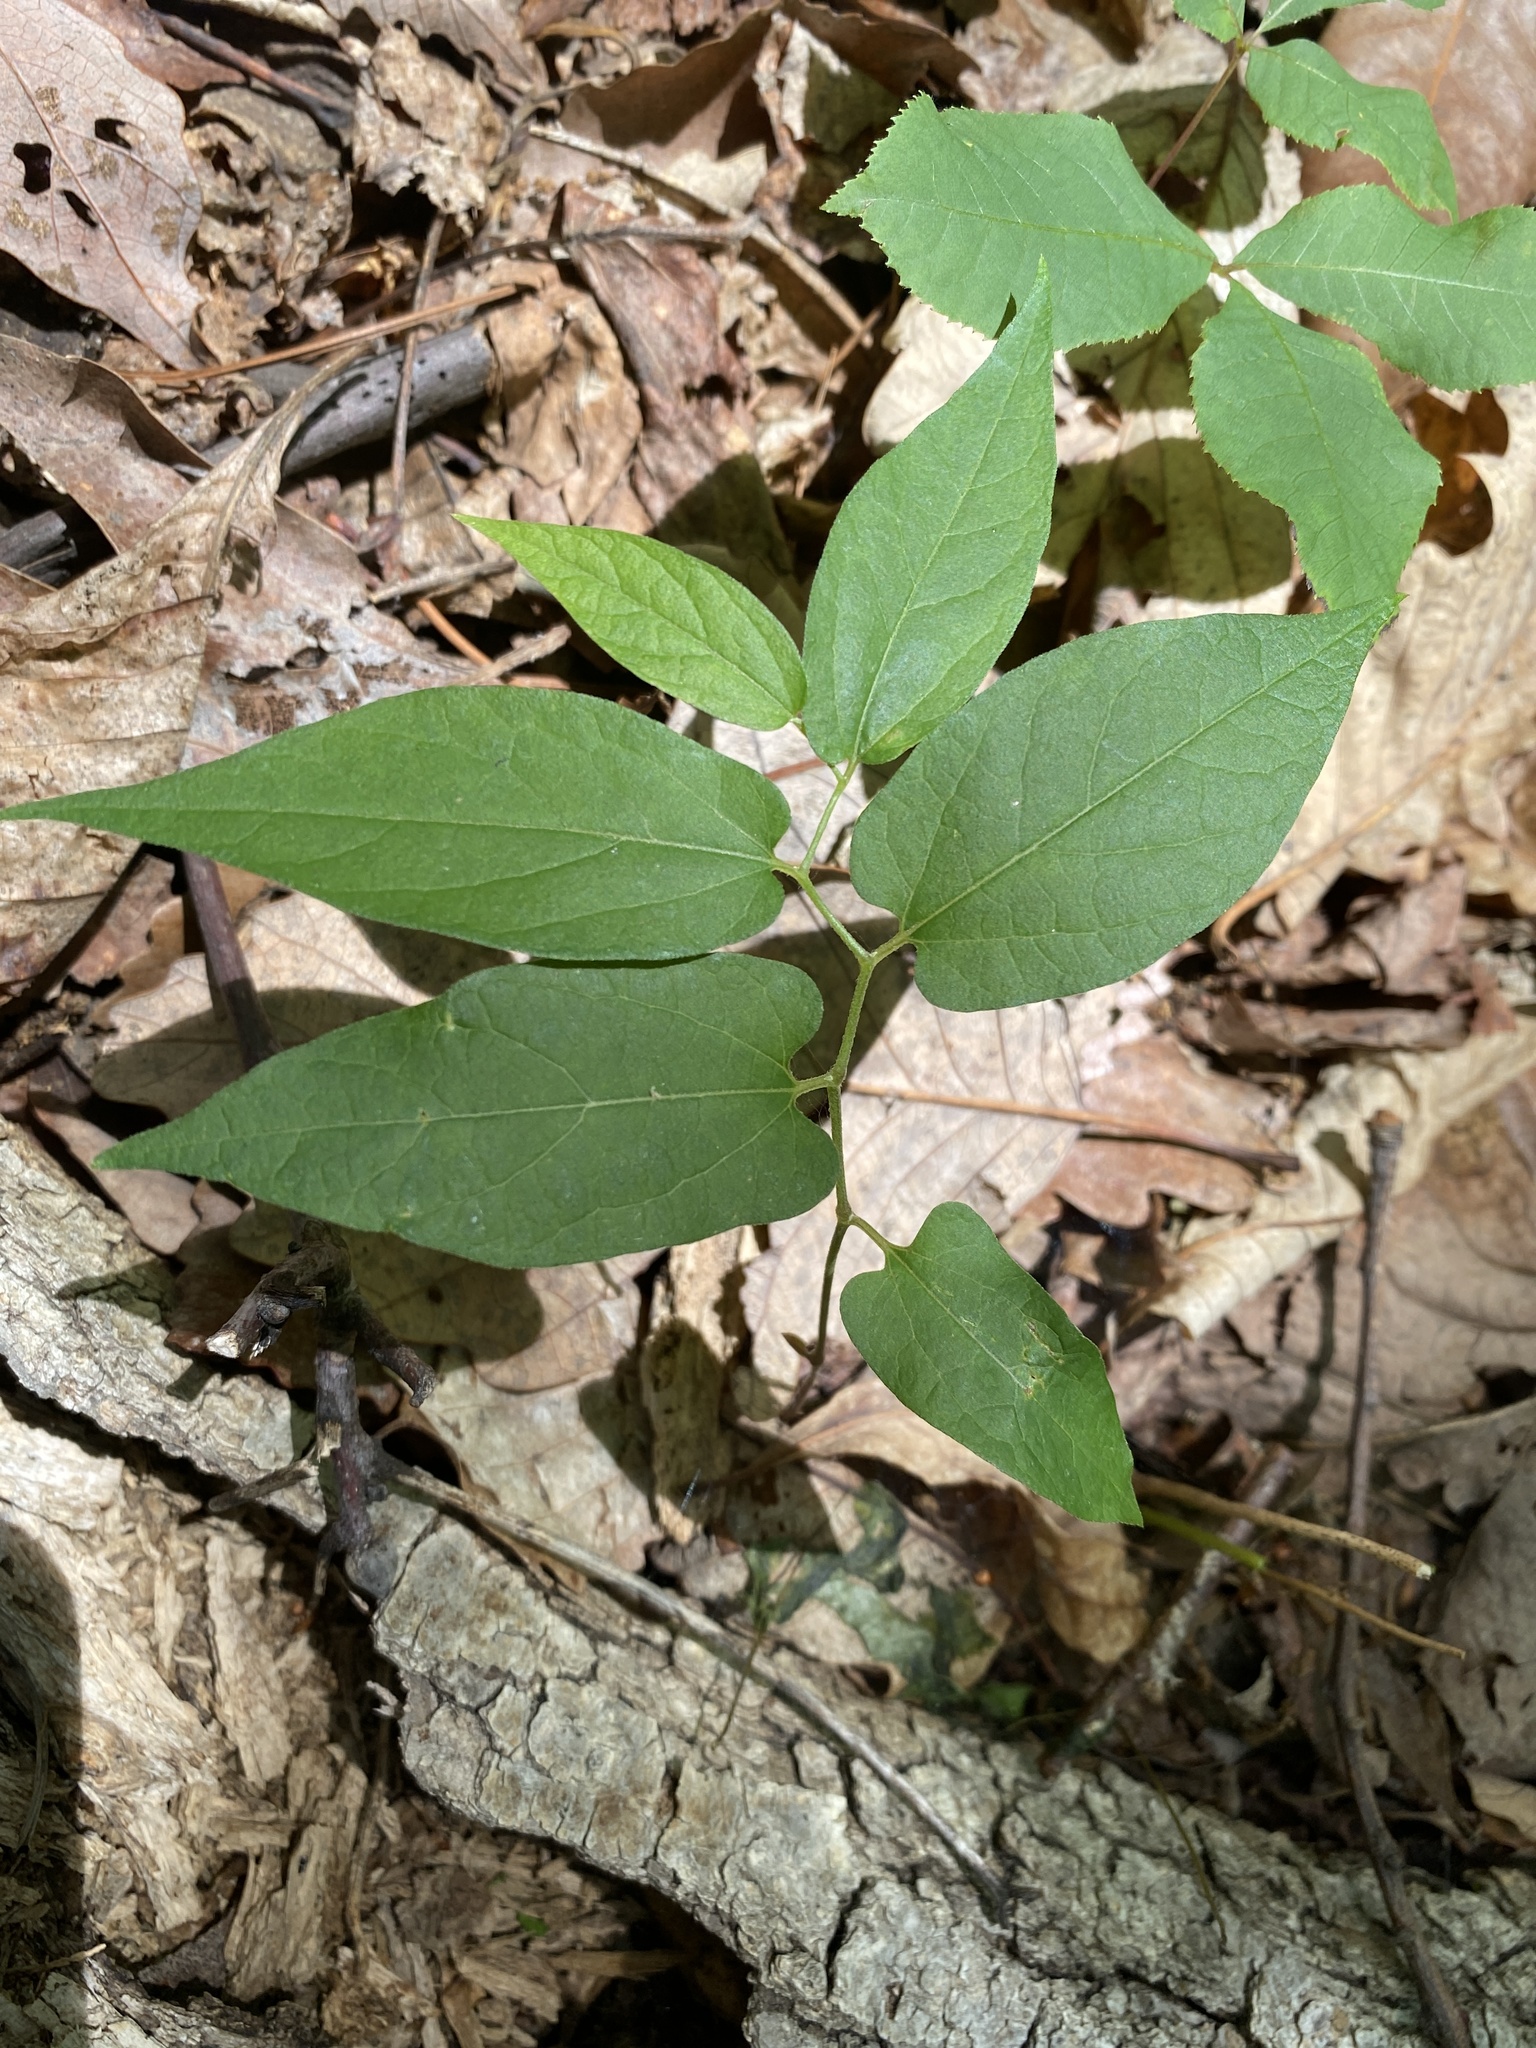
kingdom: Plantae
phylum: Tracheophyta
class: Magnoliopsida
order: Piperales
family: Aristolochiaceae
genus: Endodeca
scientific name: Endodeca serpentaria
